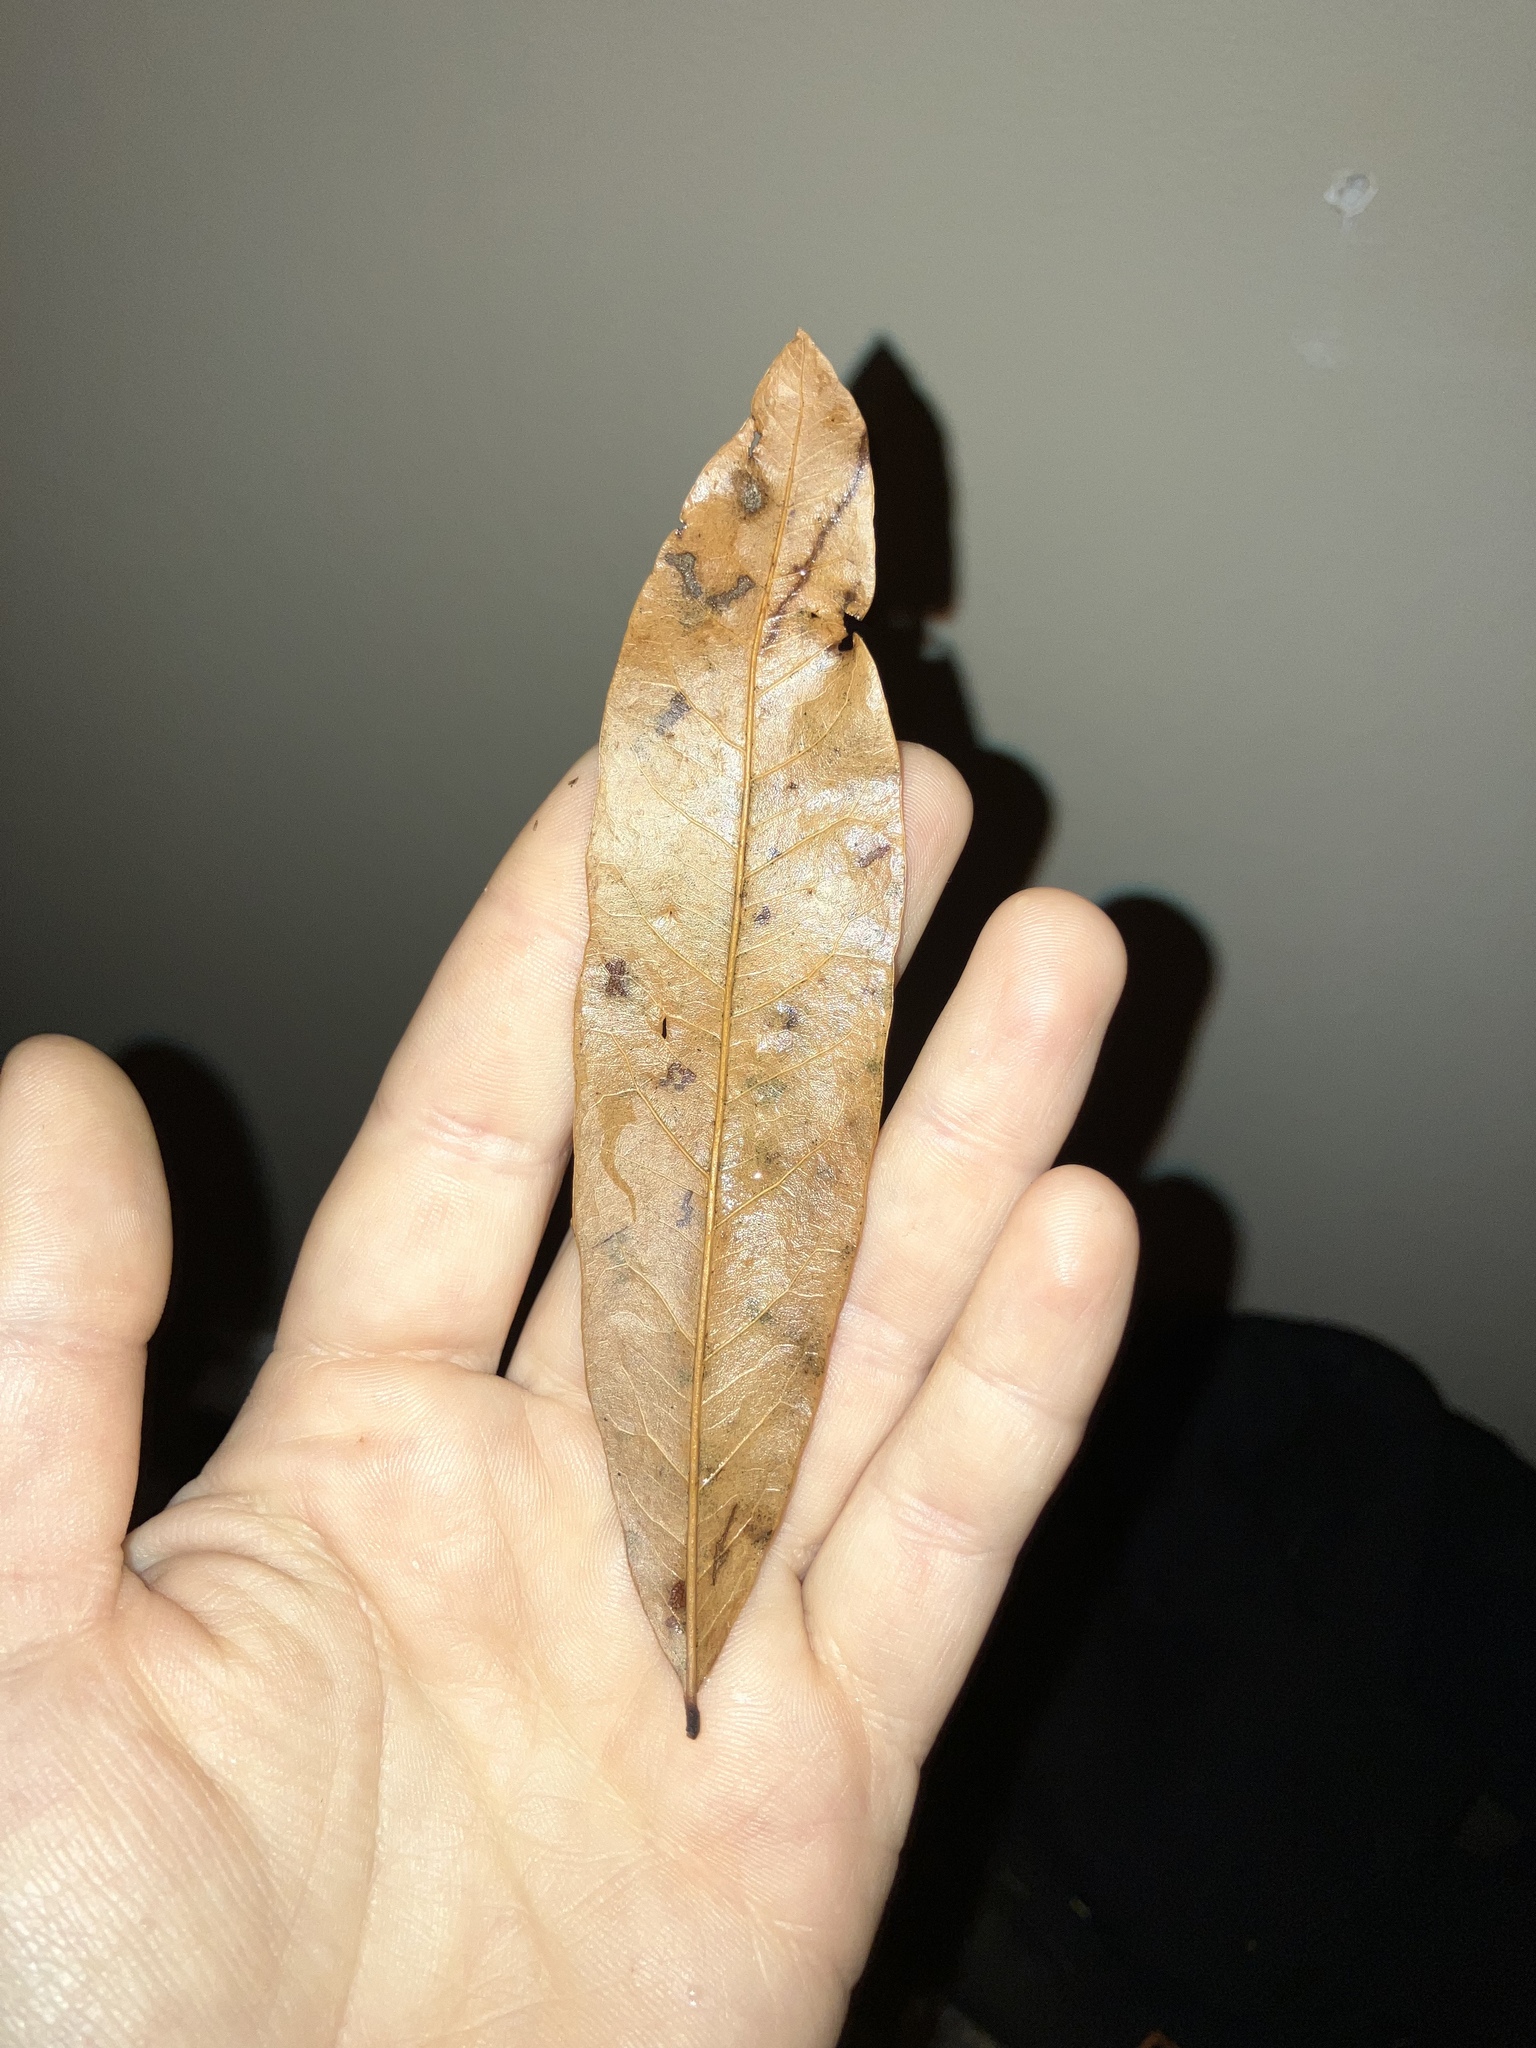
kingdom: Plantae
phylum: Tracheophyta
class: Magnoliopsida
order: Fagales
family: Fagaceae
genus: Quercus
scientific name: Quercus phellos
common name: Willow oak
